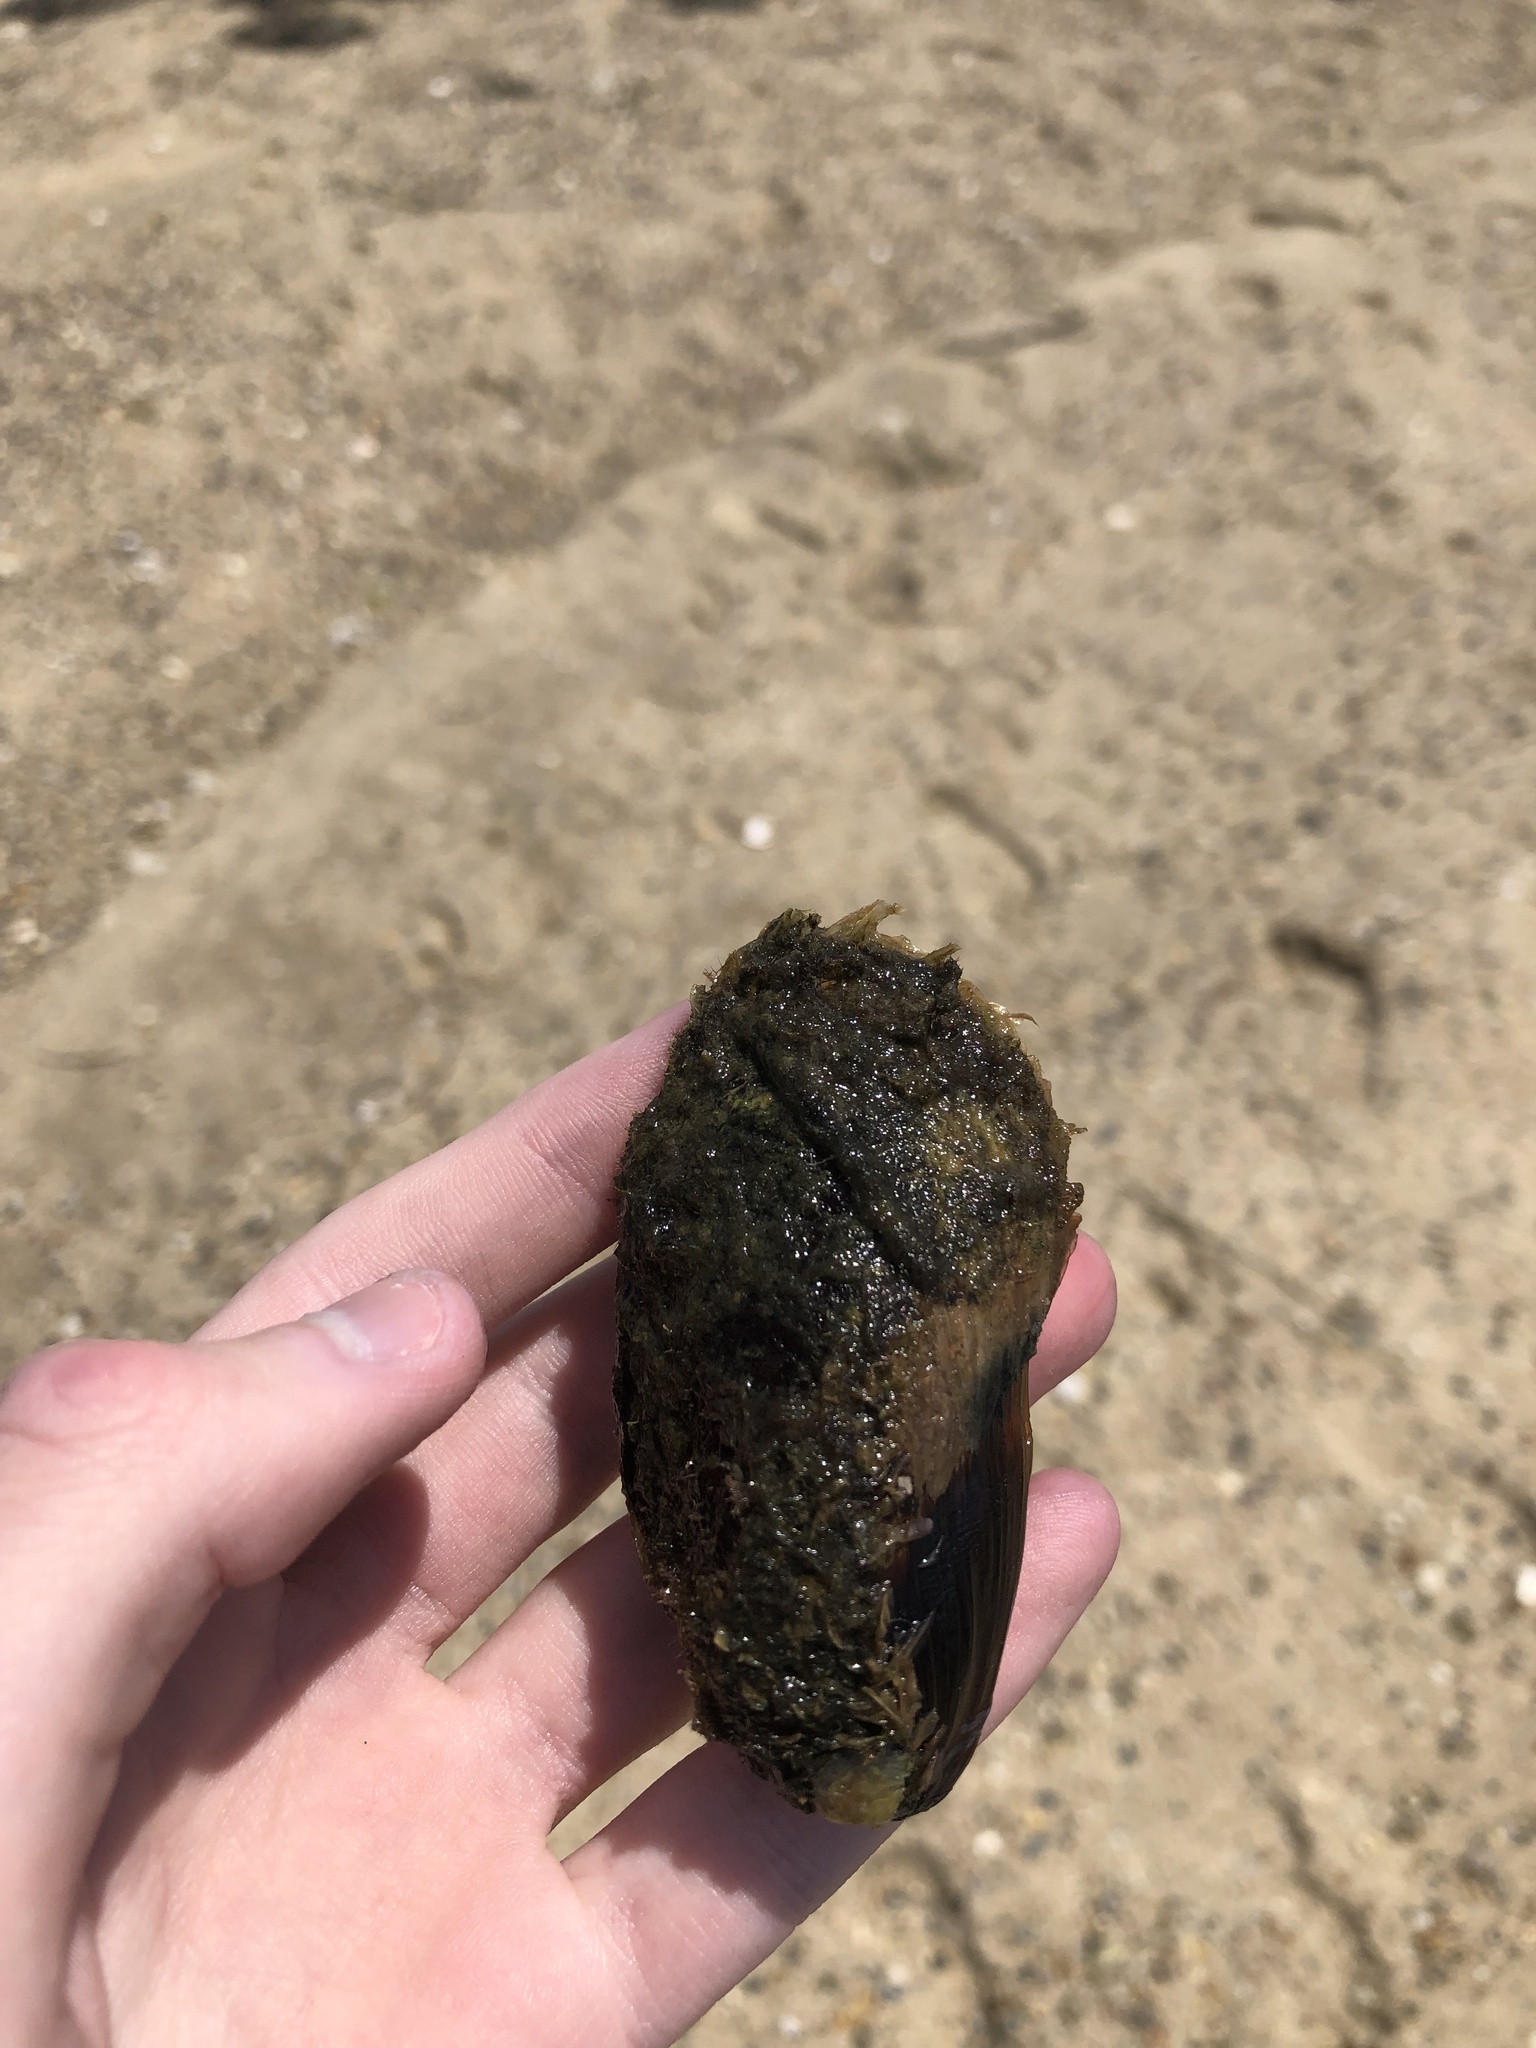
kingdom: Animalia
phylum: Mollusca
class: Bivalvia
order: Mytilida
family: Mytilidae
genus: Modiolus
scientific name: Modiolus modiolus
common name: Horse-mussel
